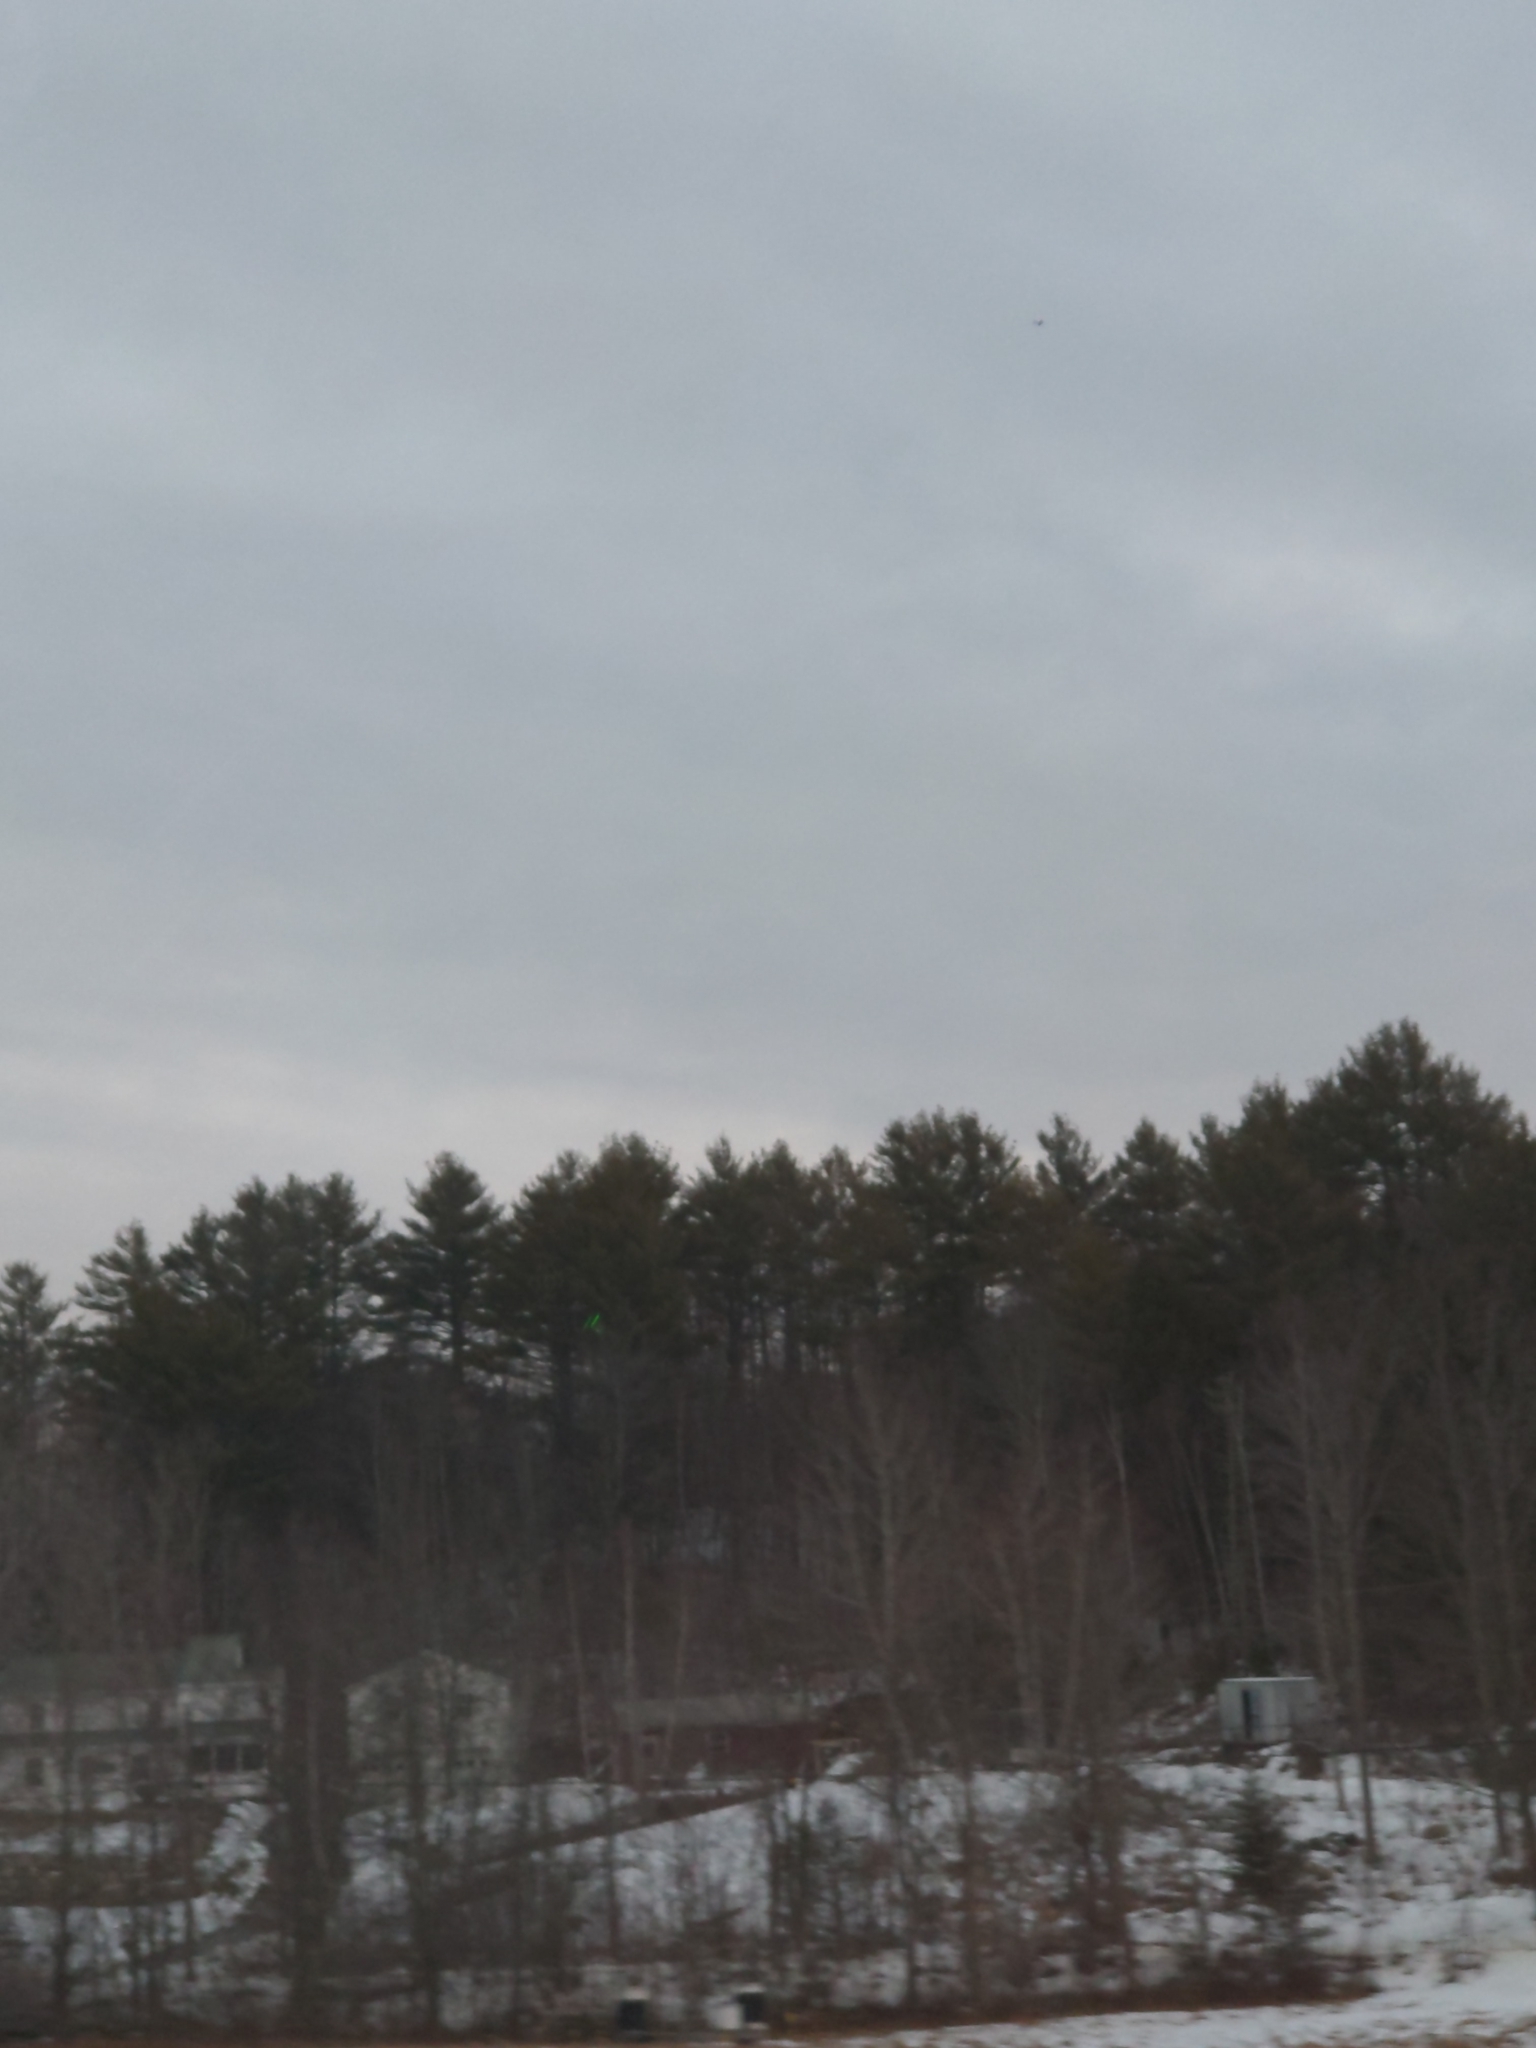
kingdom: Plantae
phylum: Tracheophyta
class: Pinopsida
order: Pinales
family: Pinaceae
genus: Pinus
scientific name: Pinus strobus
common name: Weymouth pine
